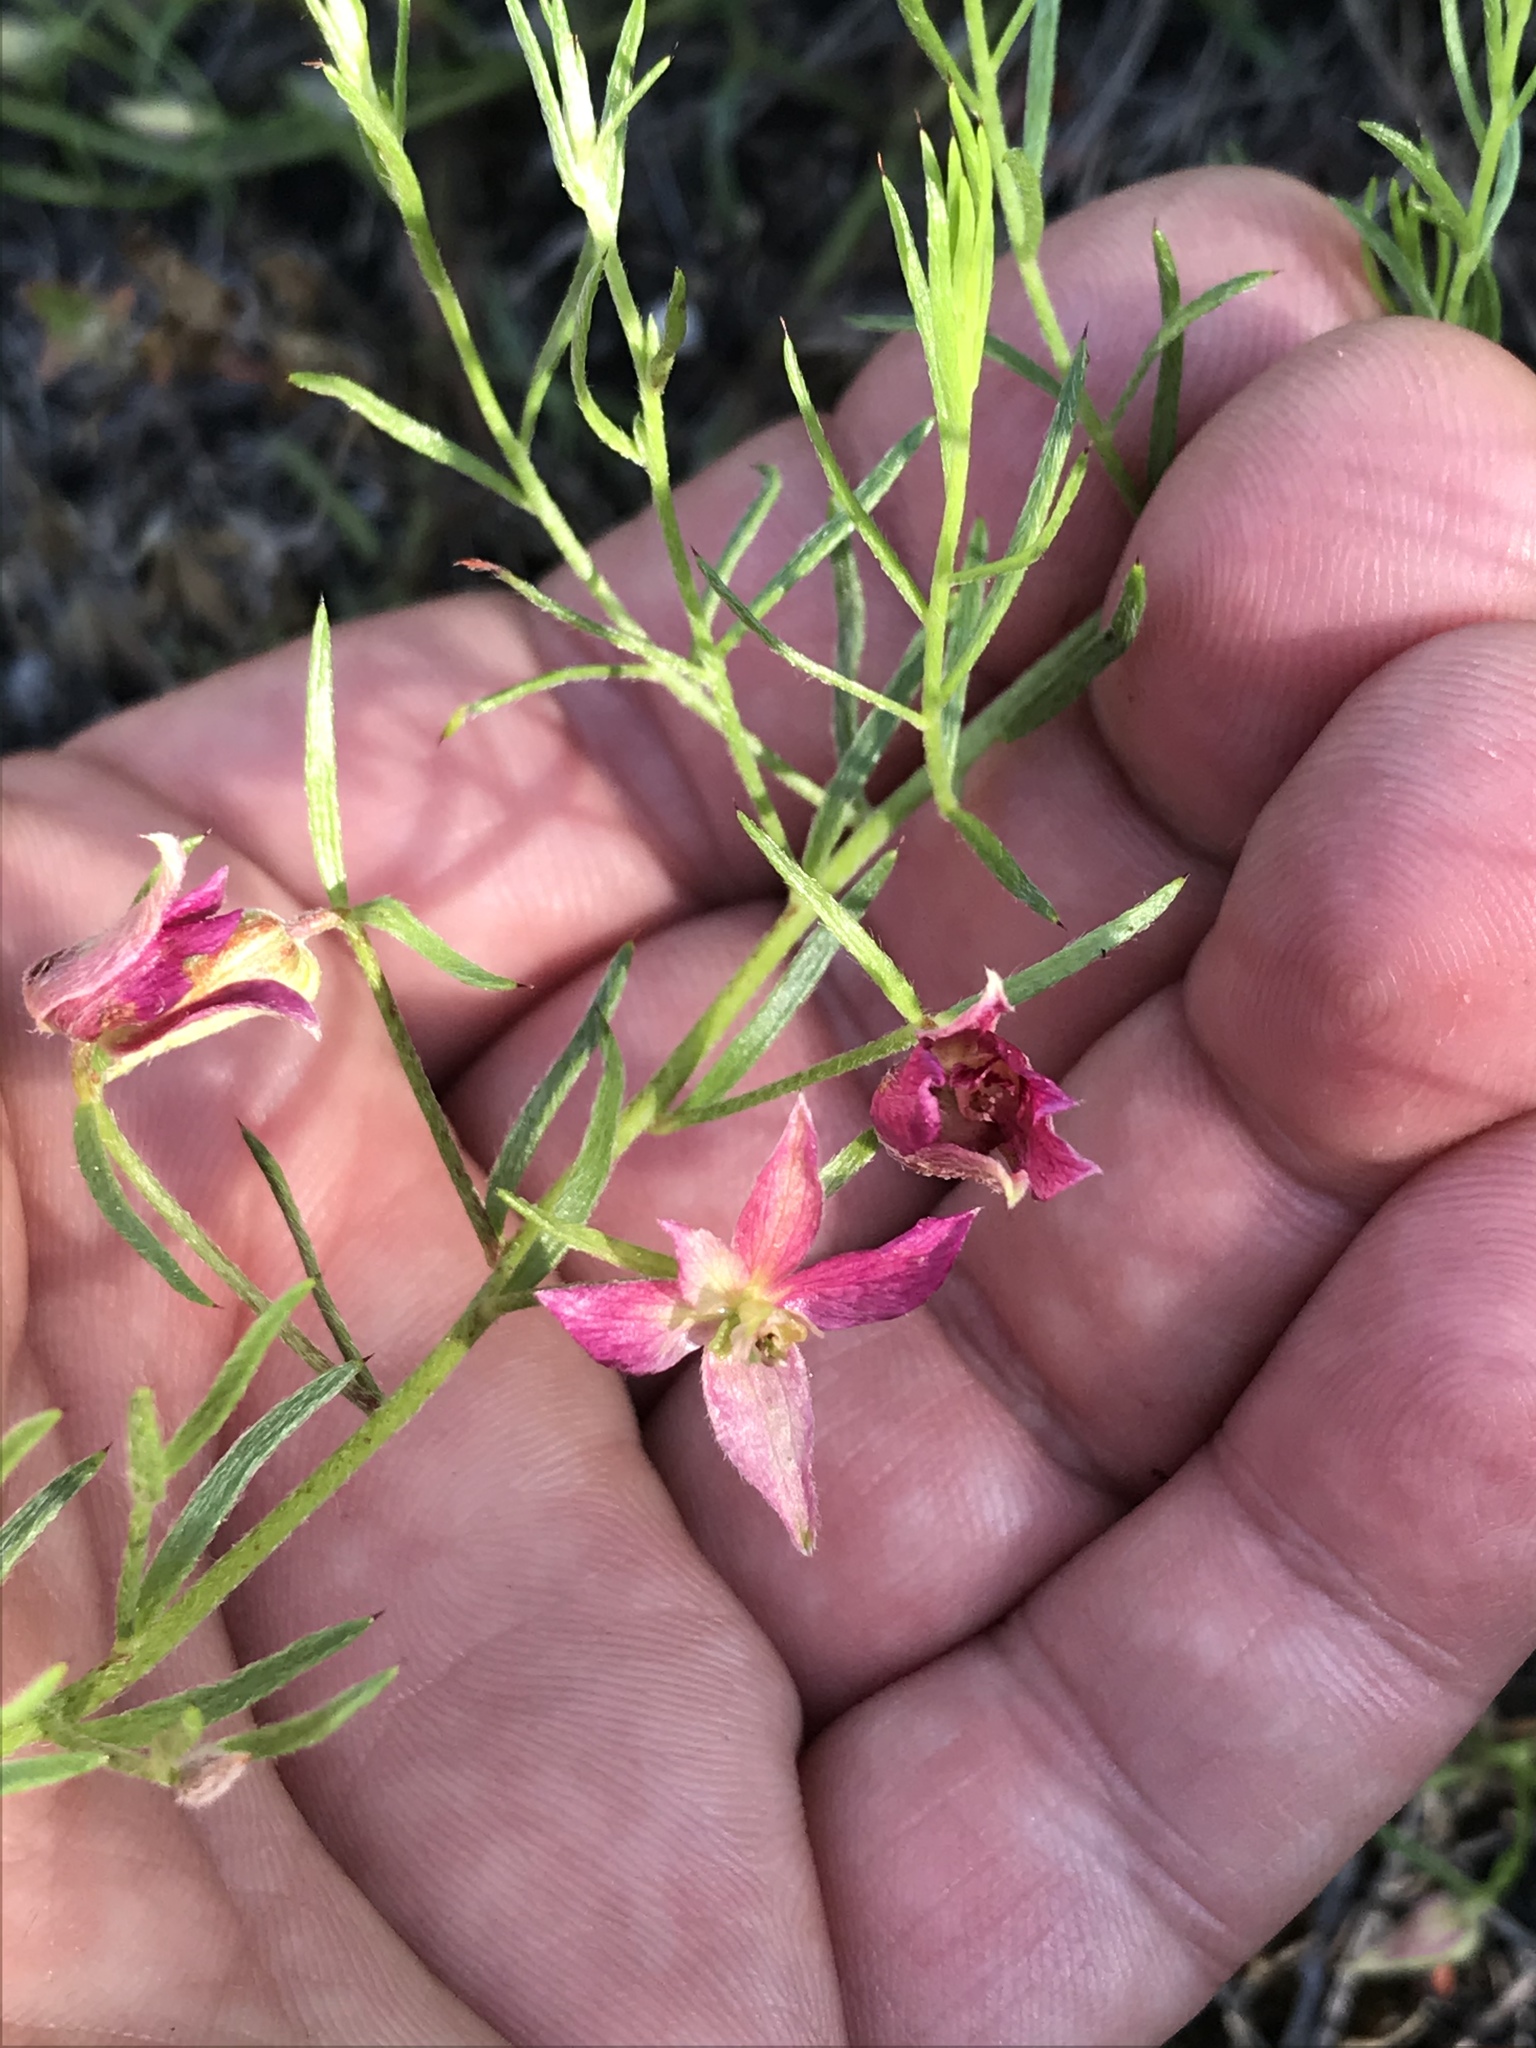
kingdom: Plantae
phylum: Tracheophyta
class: Magnoliopsida
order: Zygophyllales
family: Krameriaceae
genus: Krameria
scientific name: Krameria lanceolata
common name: Ratany
